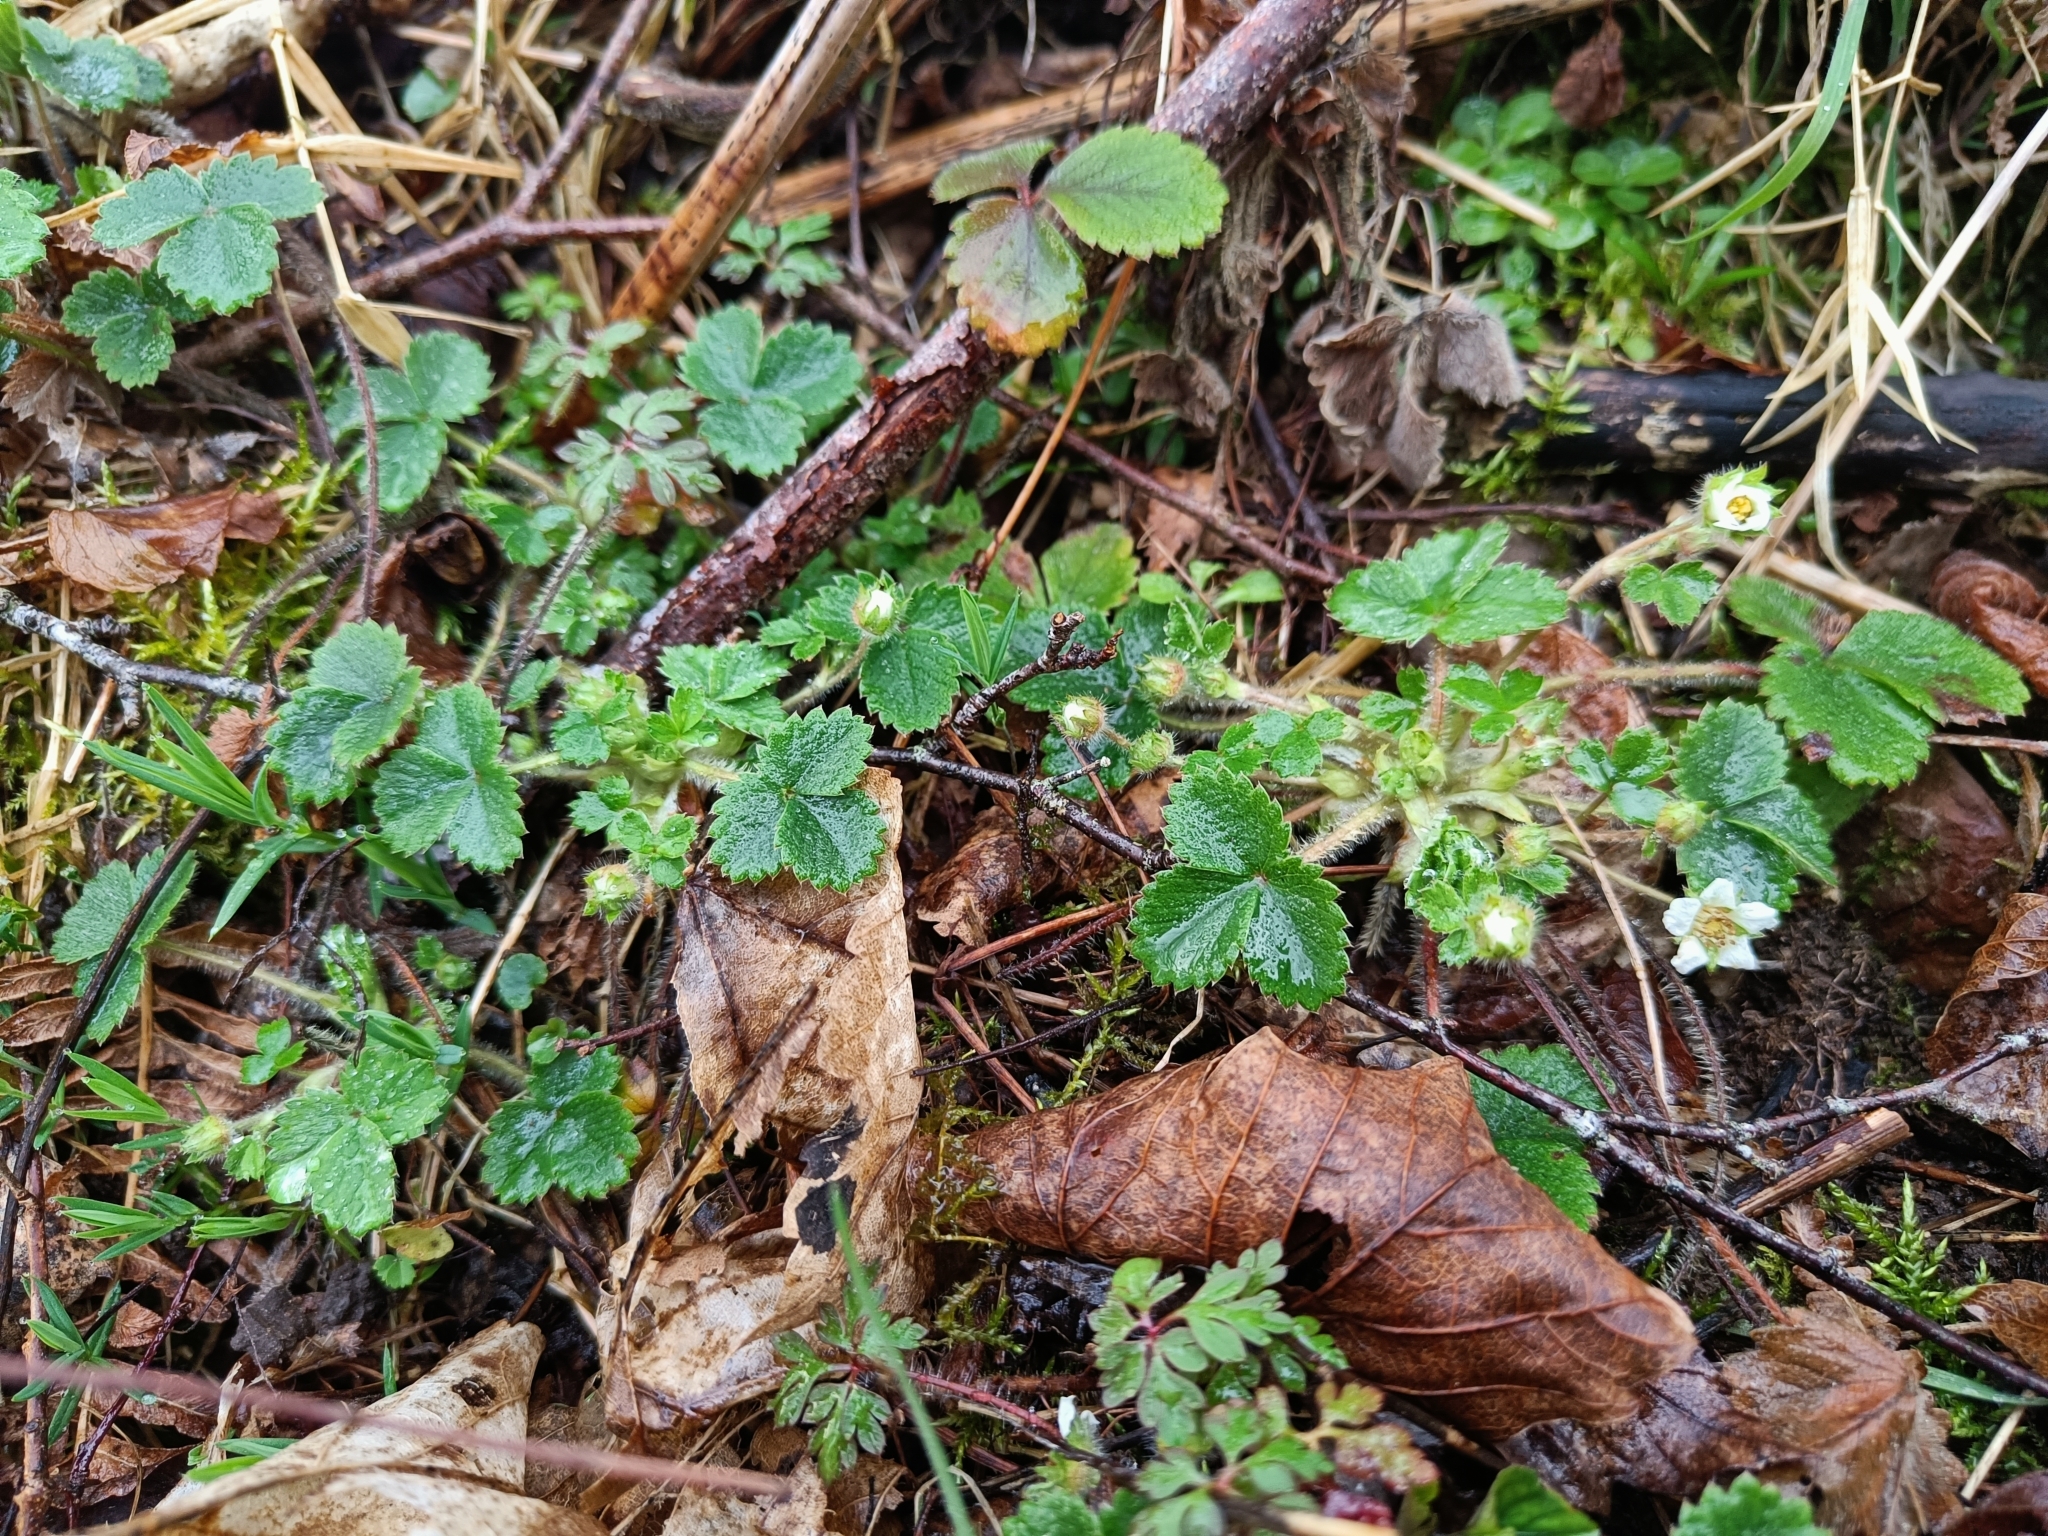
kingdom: Plantae
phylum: Tracheophyta
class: Magnoliopsida
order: Rosales
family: Rosaceae
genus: Potentilla
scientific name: Potentilla sterilis
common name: Barren strawberry
